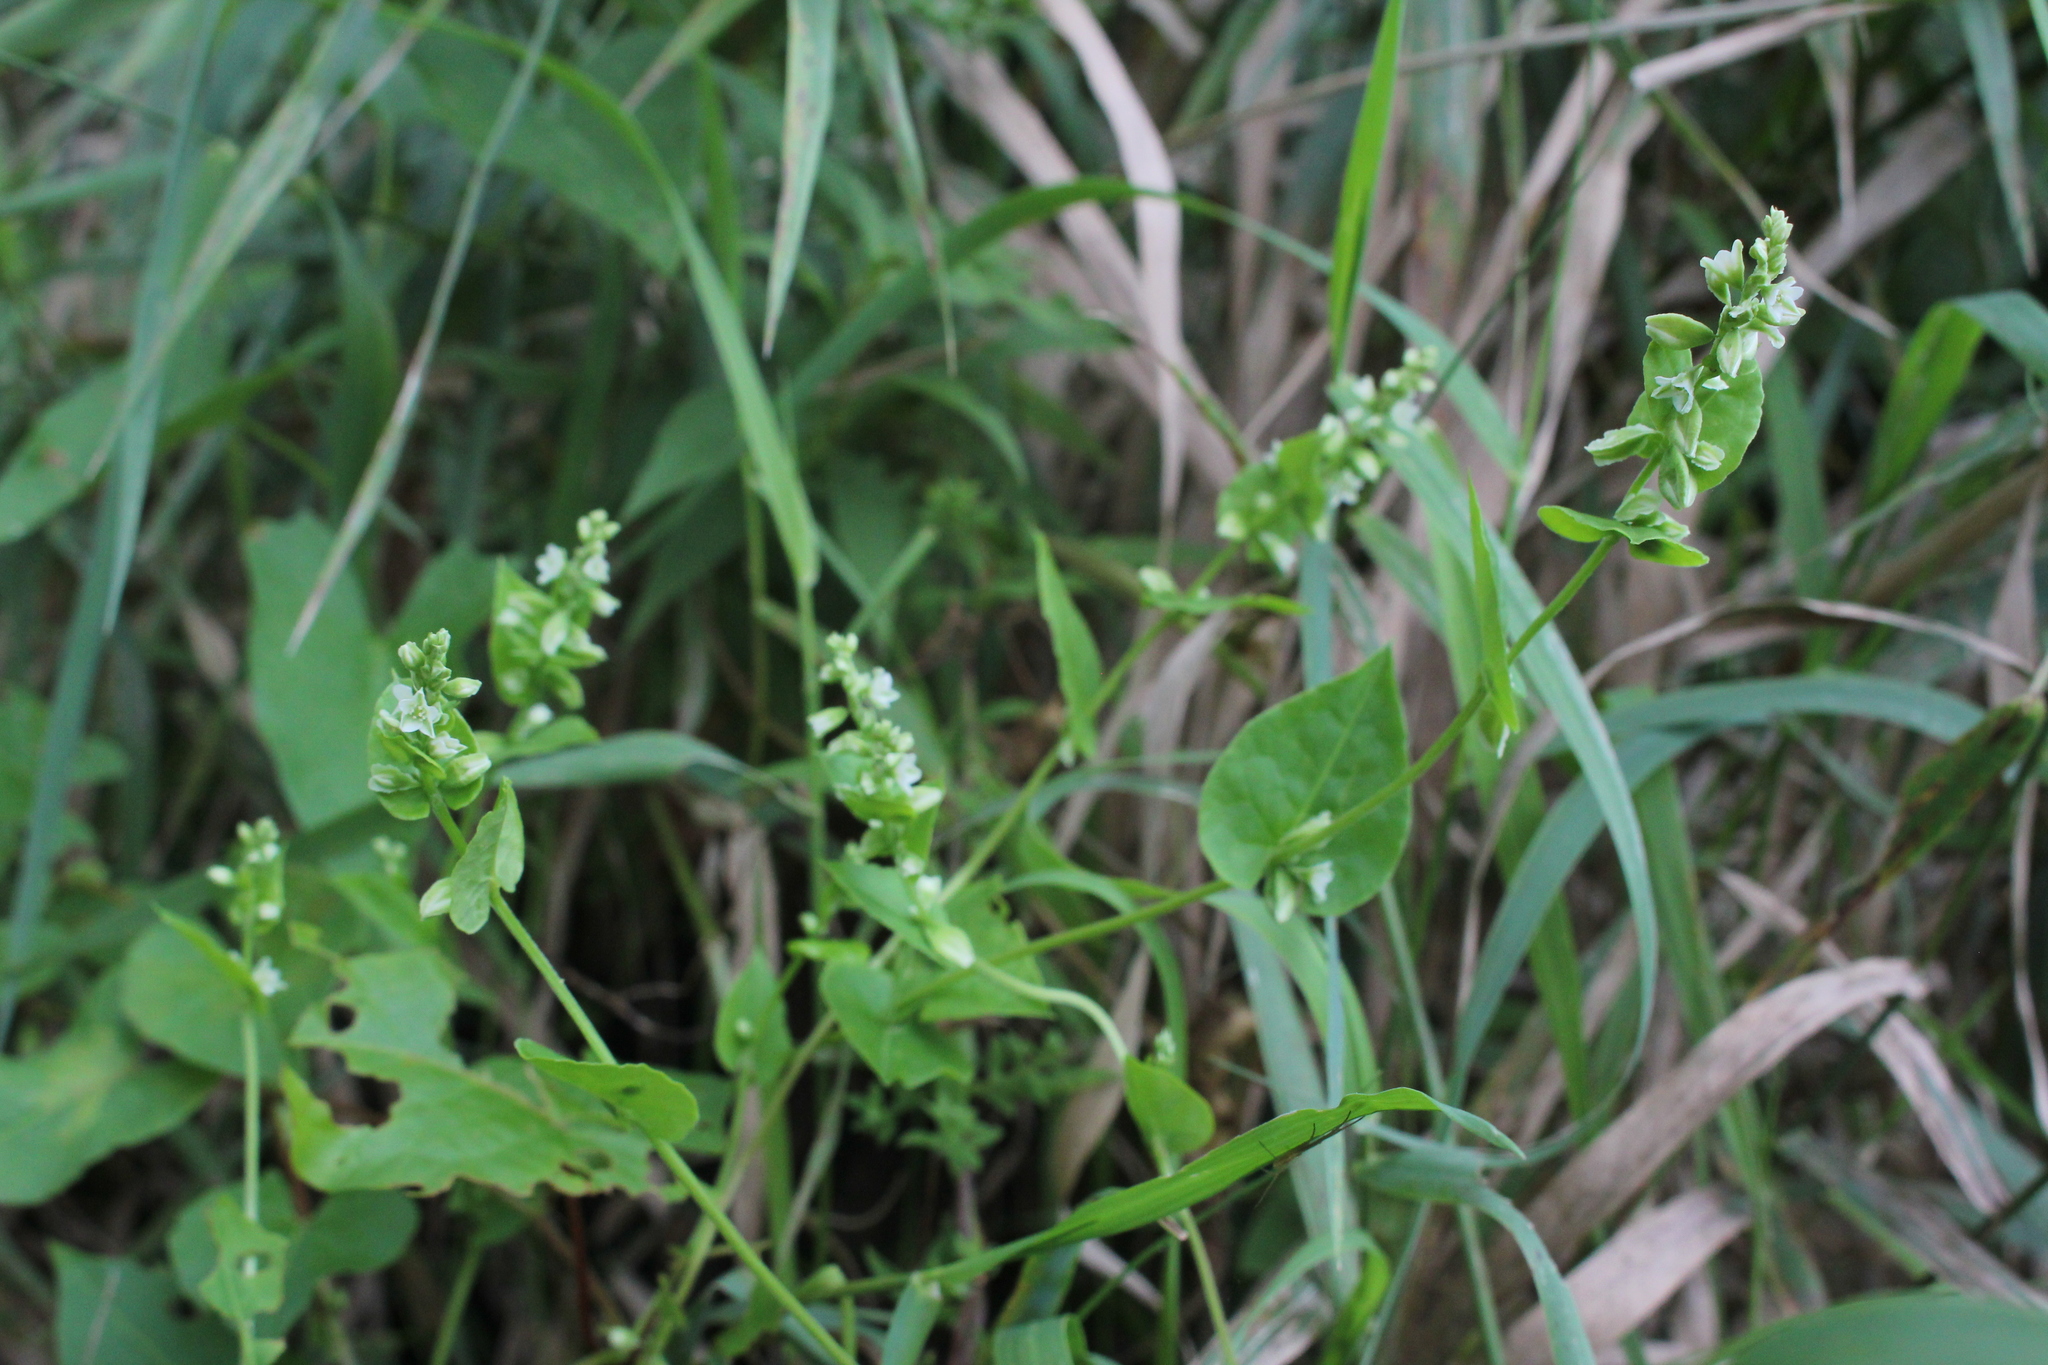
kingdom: Plantae
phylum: Tracheophyta
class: Magnoliopsida
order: Caryophyllales
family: Polygonaceae
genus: Fallopia
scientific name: Fallopia scandens
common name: Climbing false buckwheat
